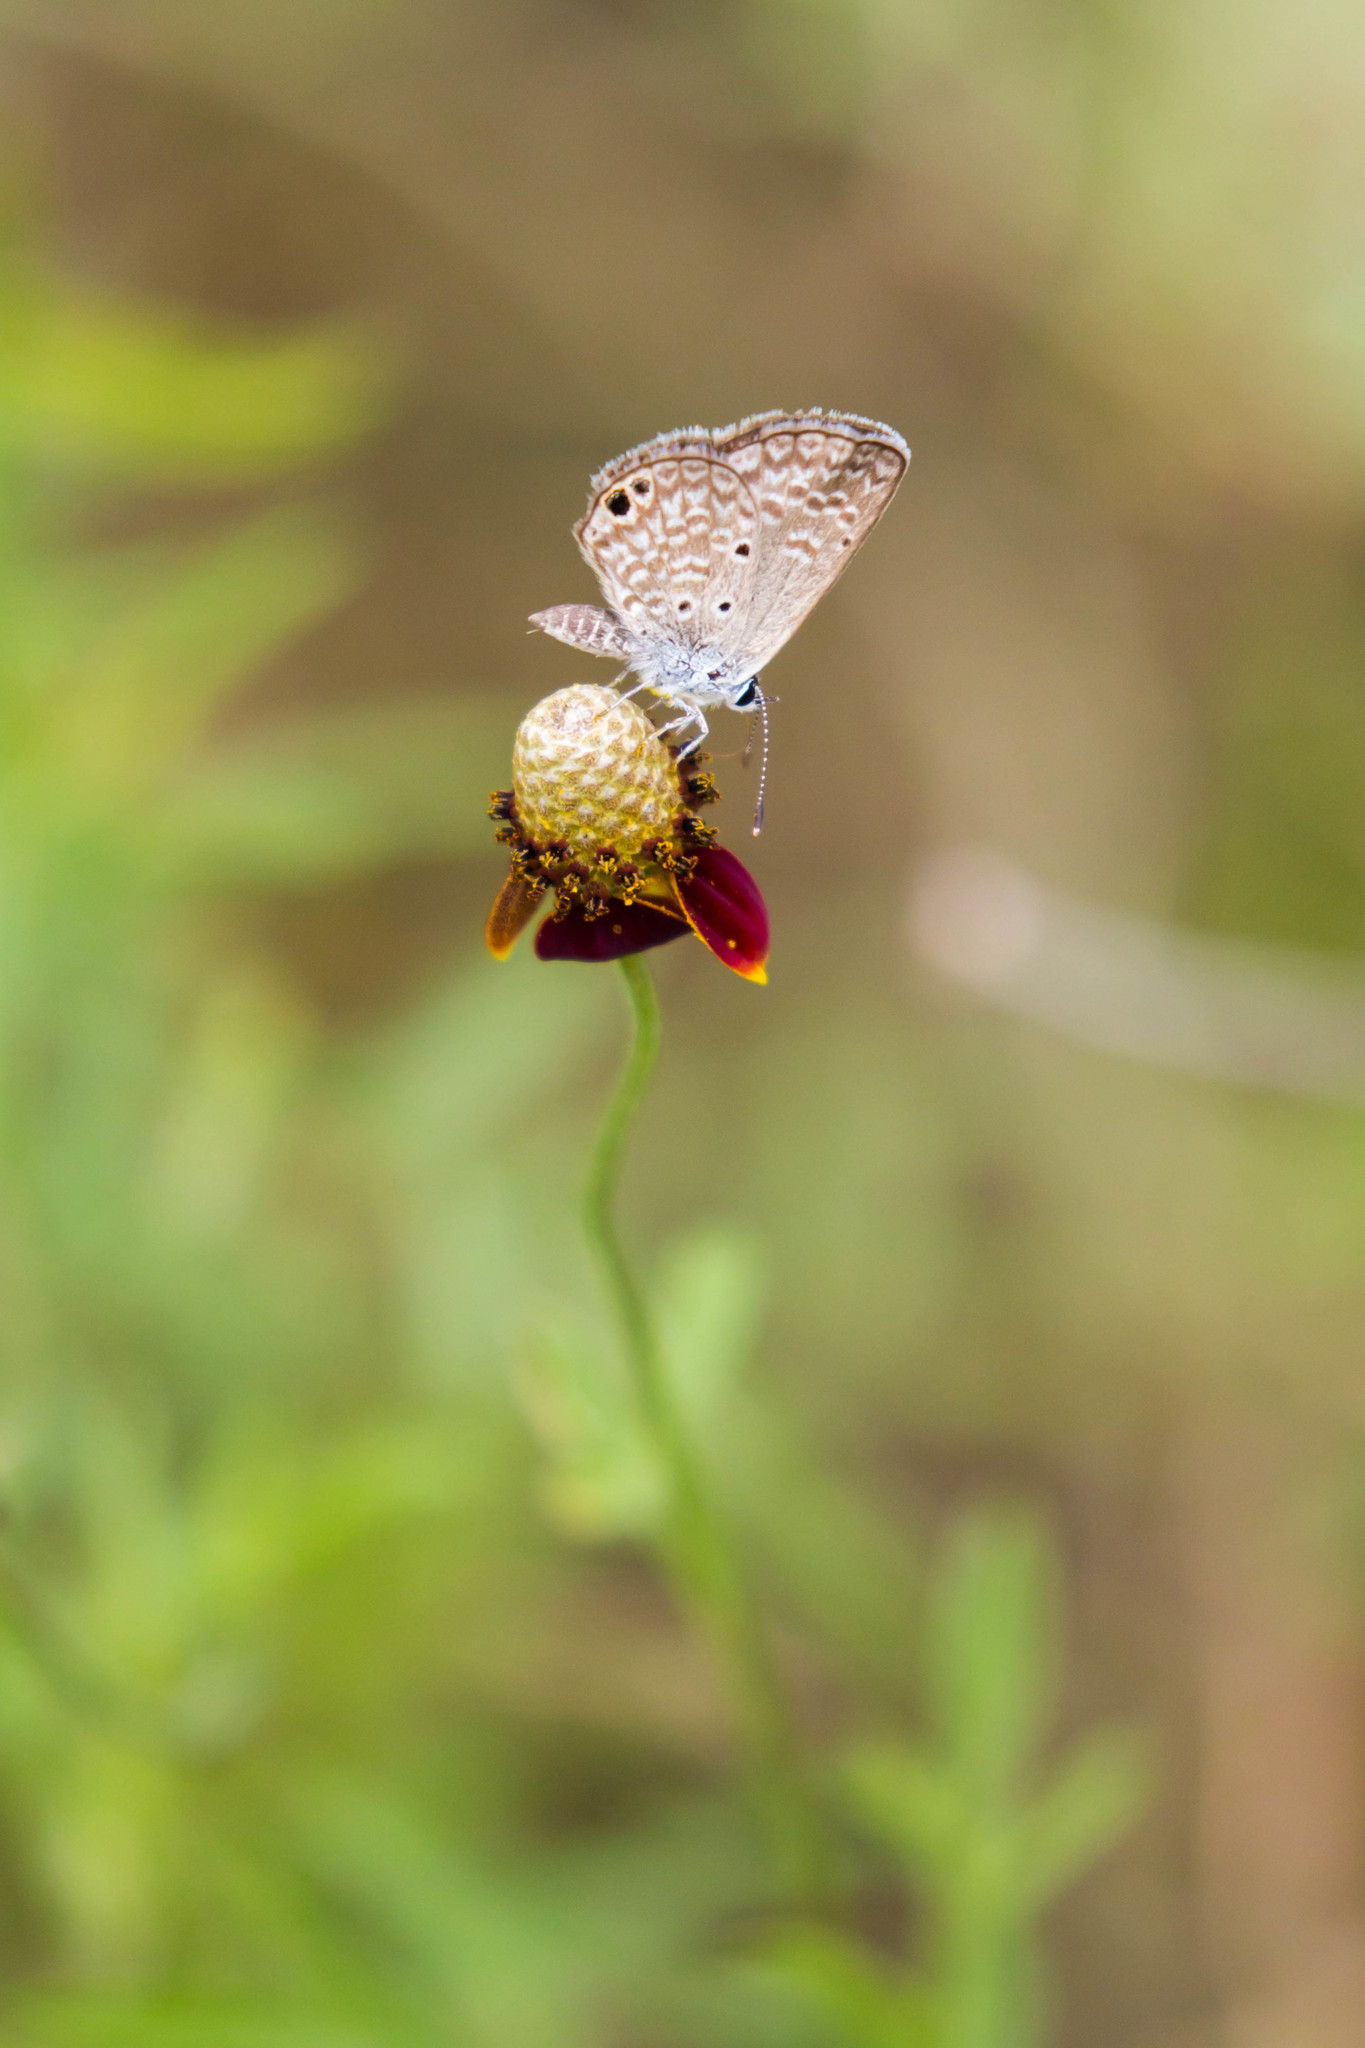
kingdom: Animalia
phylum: Arthropoda
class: Insecta
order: Lepidoptera
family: Lycaenidae
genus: Hemiargus
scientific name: Hemiargus ceraunus
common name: Ceraunus blue
